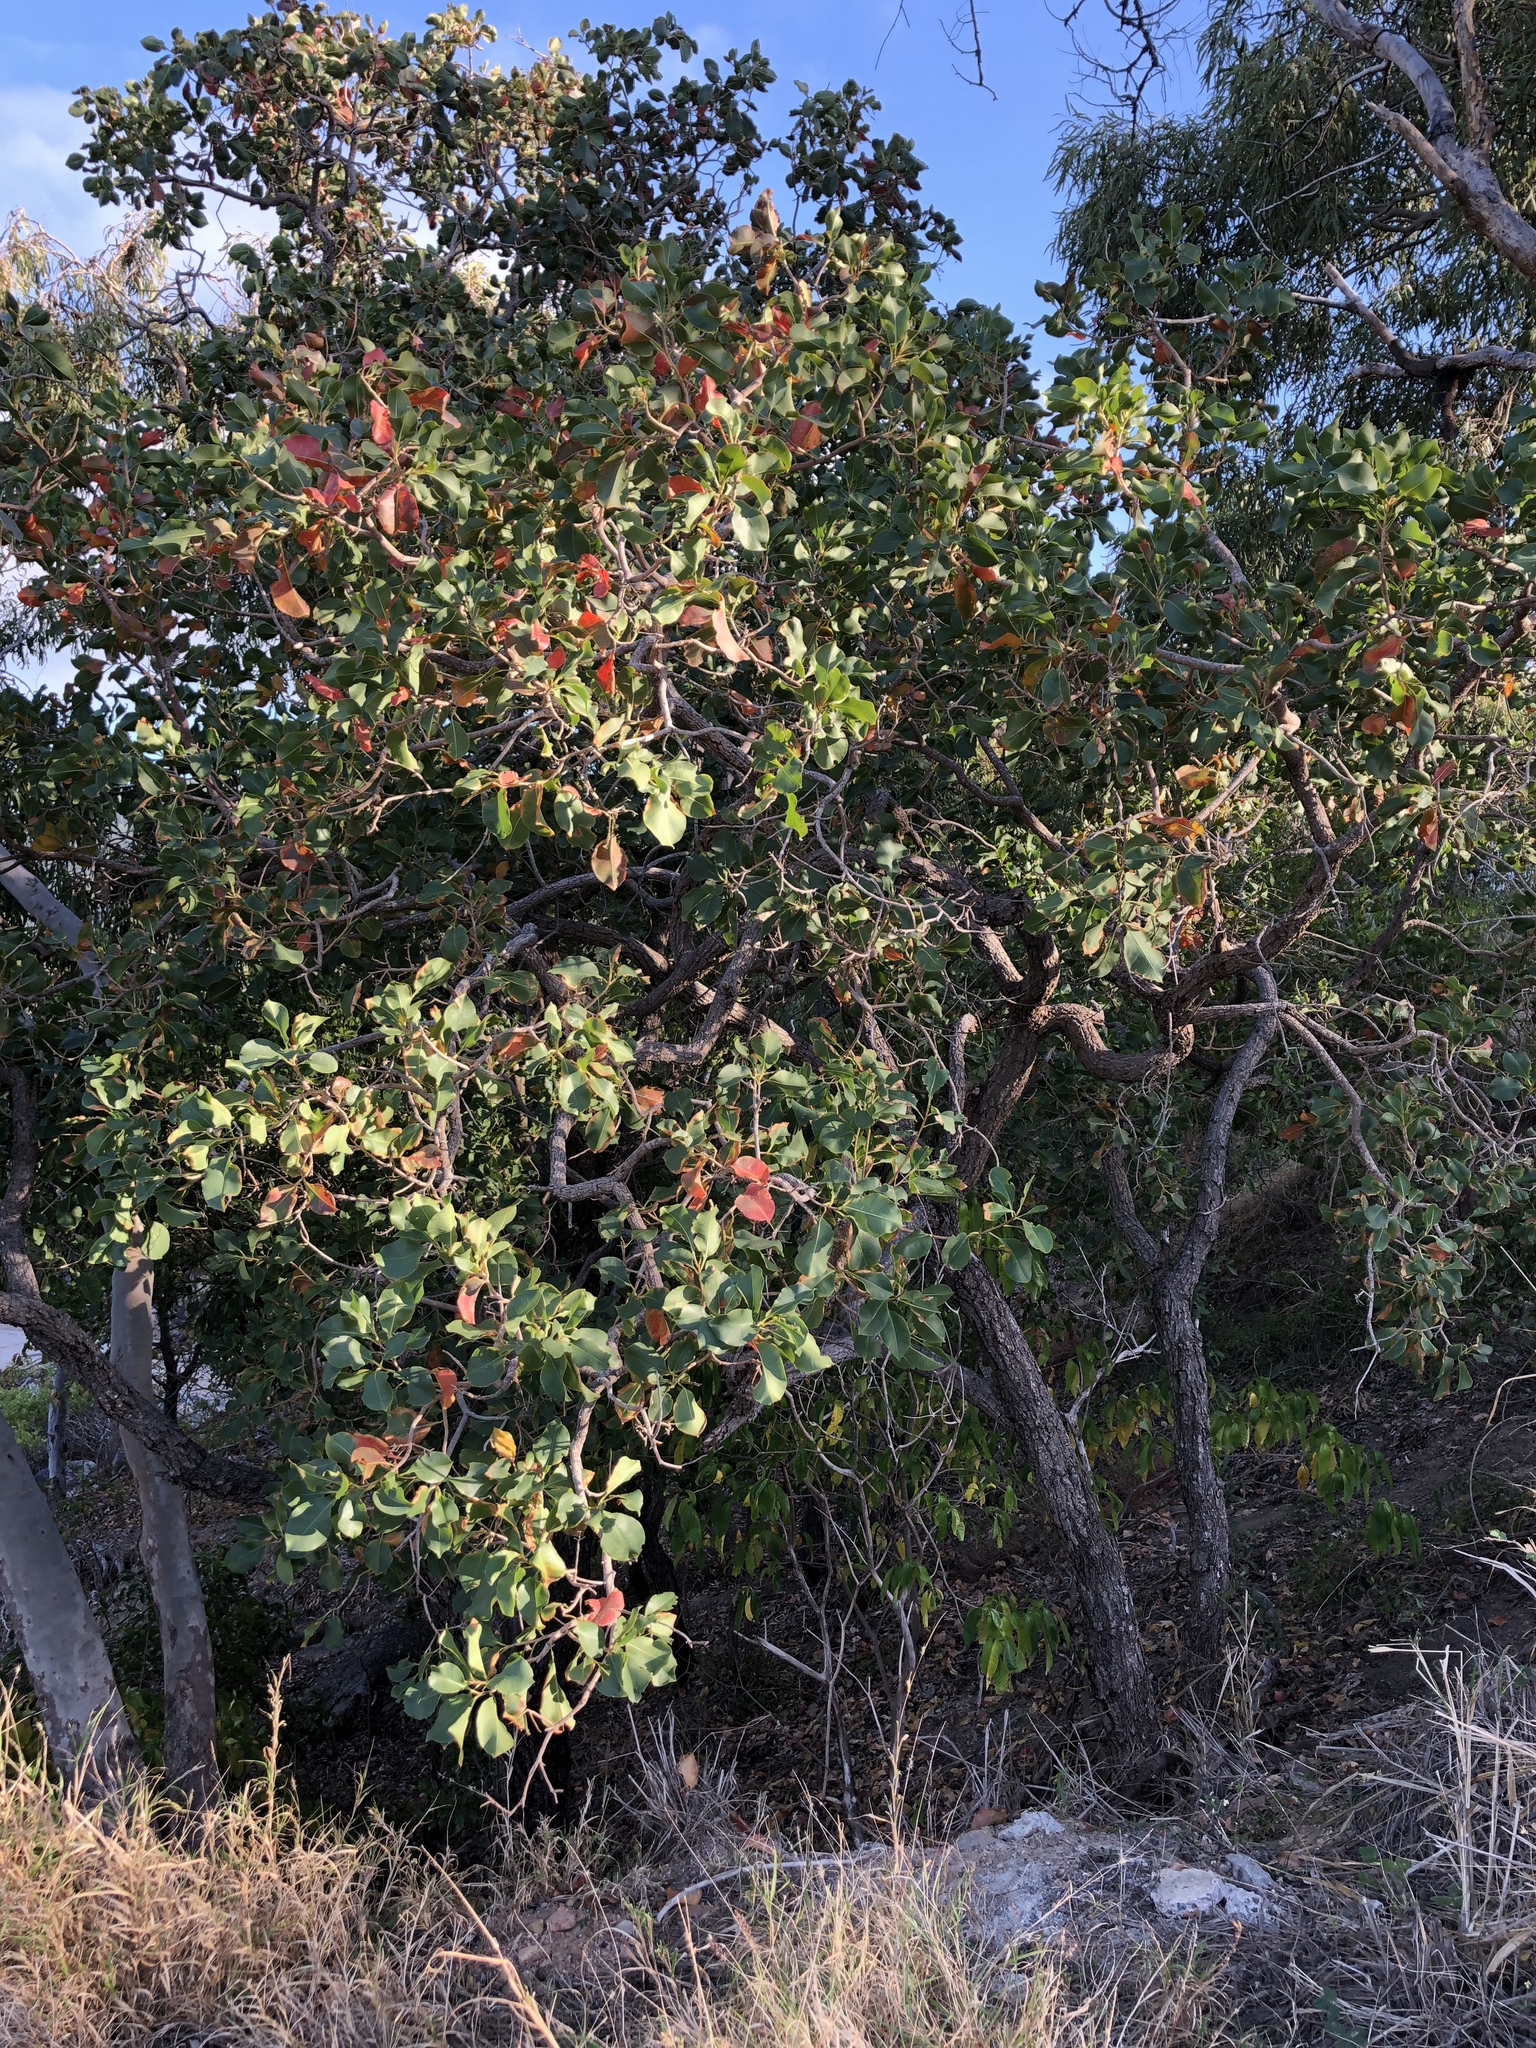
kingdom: Plantae
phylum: Tracheophyta
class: Magnoliopsida
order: Ericales
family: Lecythidaceae
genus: Planchonia
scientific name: Planchonia careya
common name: Cockatoo-apple
